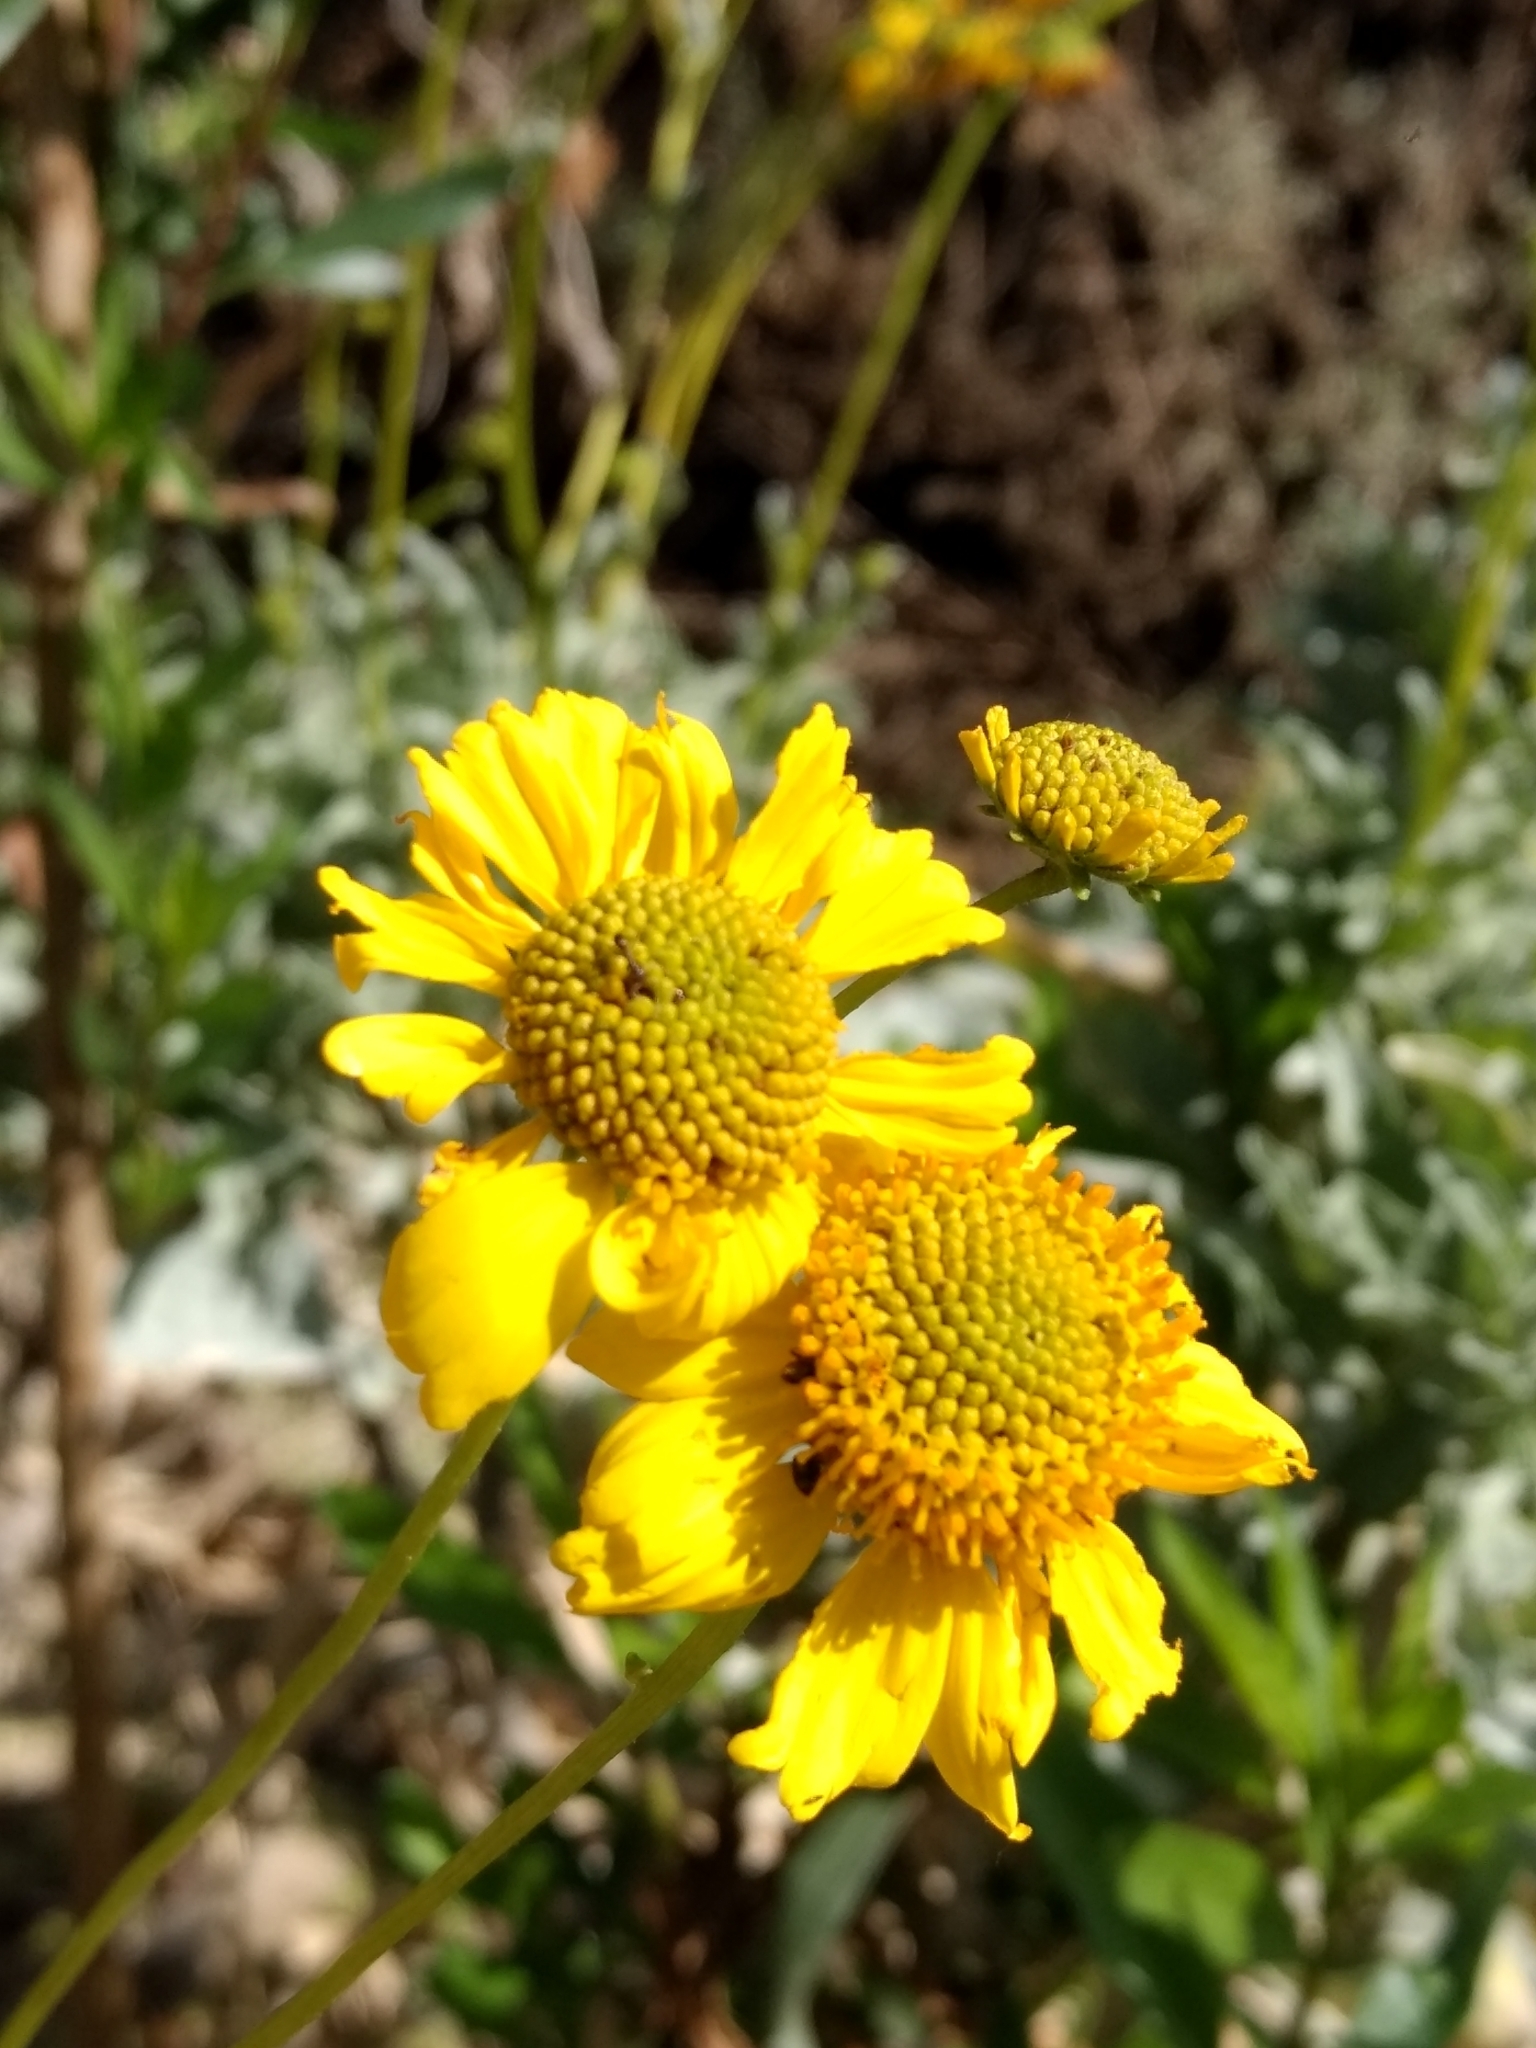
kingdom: Plantae
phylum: Tracheophyta
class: Magnoliopsida
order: Asterales
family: Asteraceae
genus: Encelia
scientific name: Encelia farinosa
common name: Brittlebush
